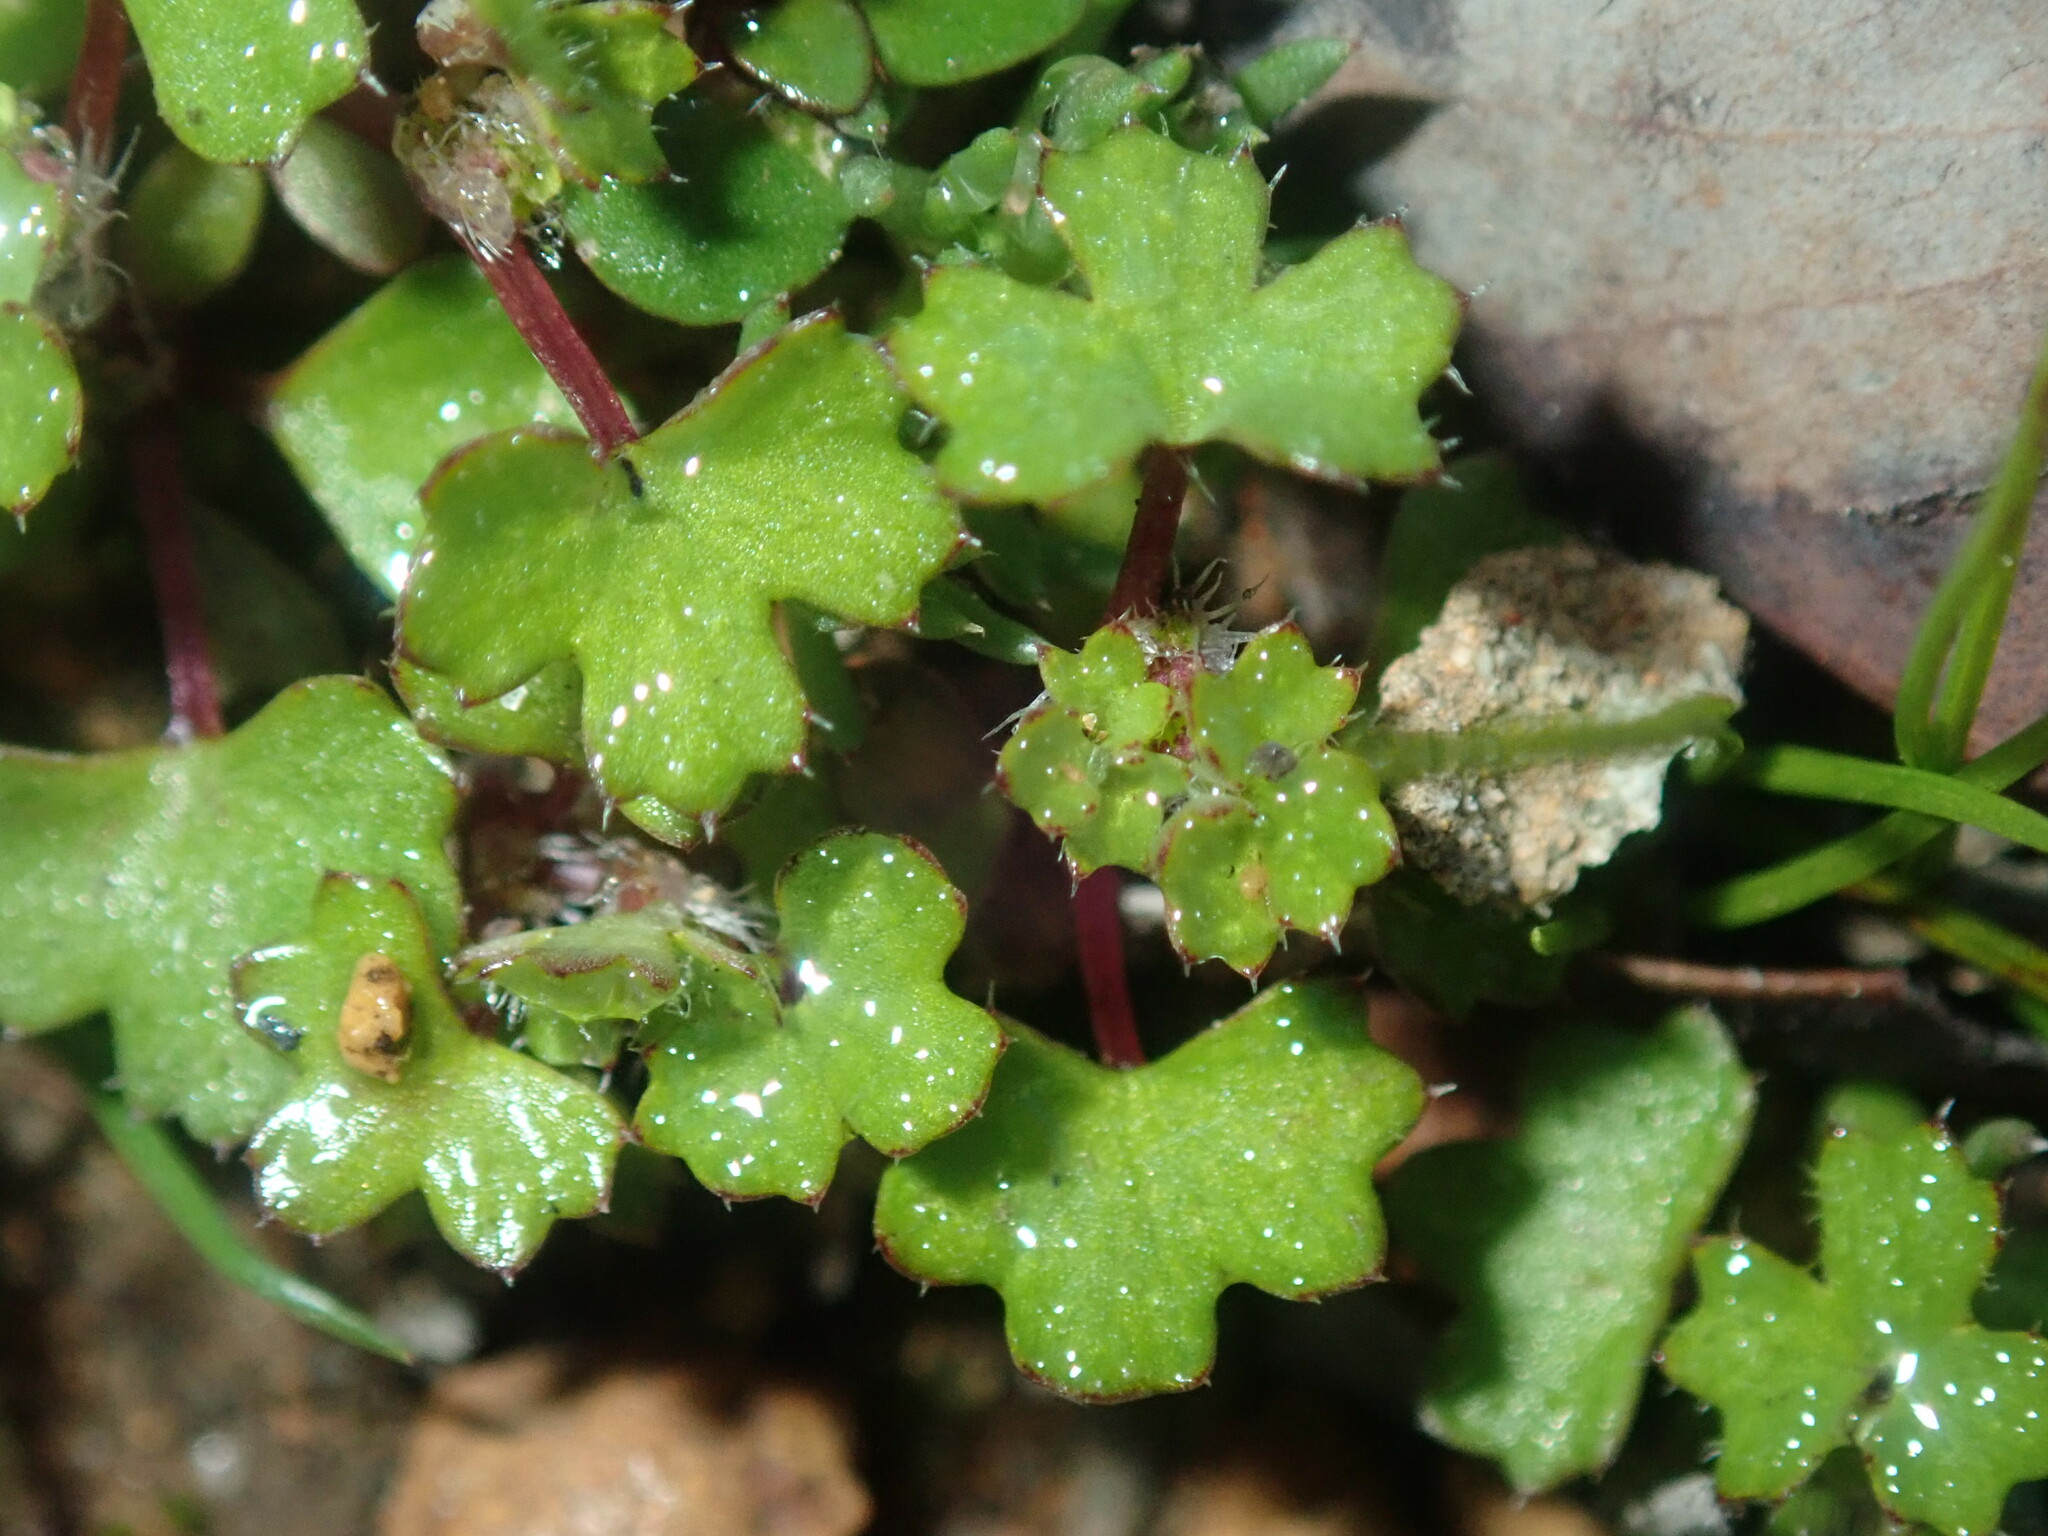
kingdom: Plantae
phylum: Tracheophyta
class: Magnoliopsida
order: Apiales
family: Araliaceae
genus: Hydrocotyle
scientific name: Hydrocotyle callicarpa
